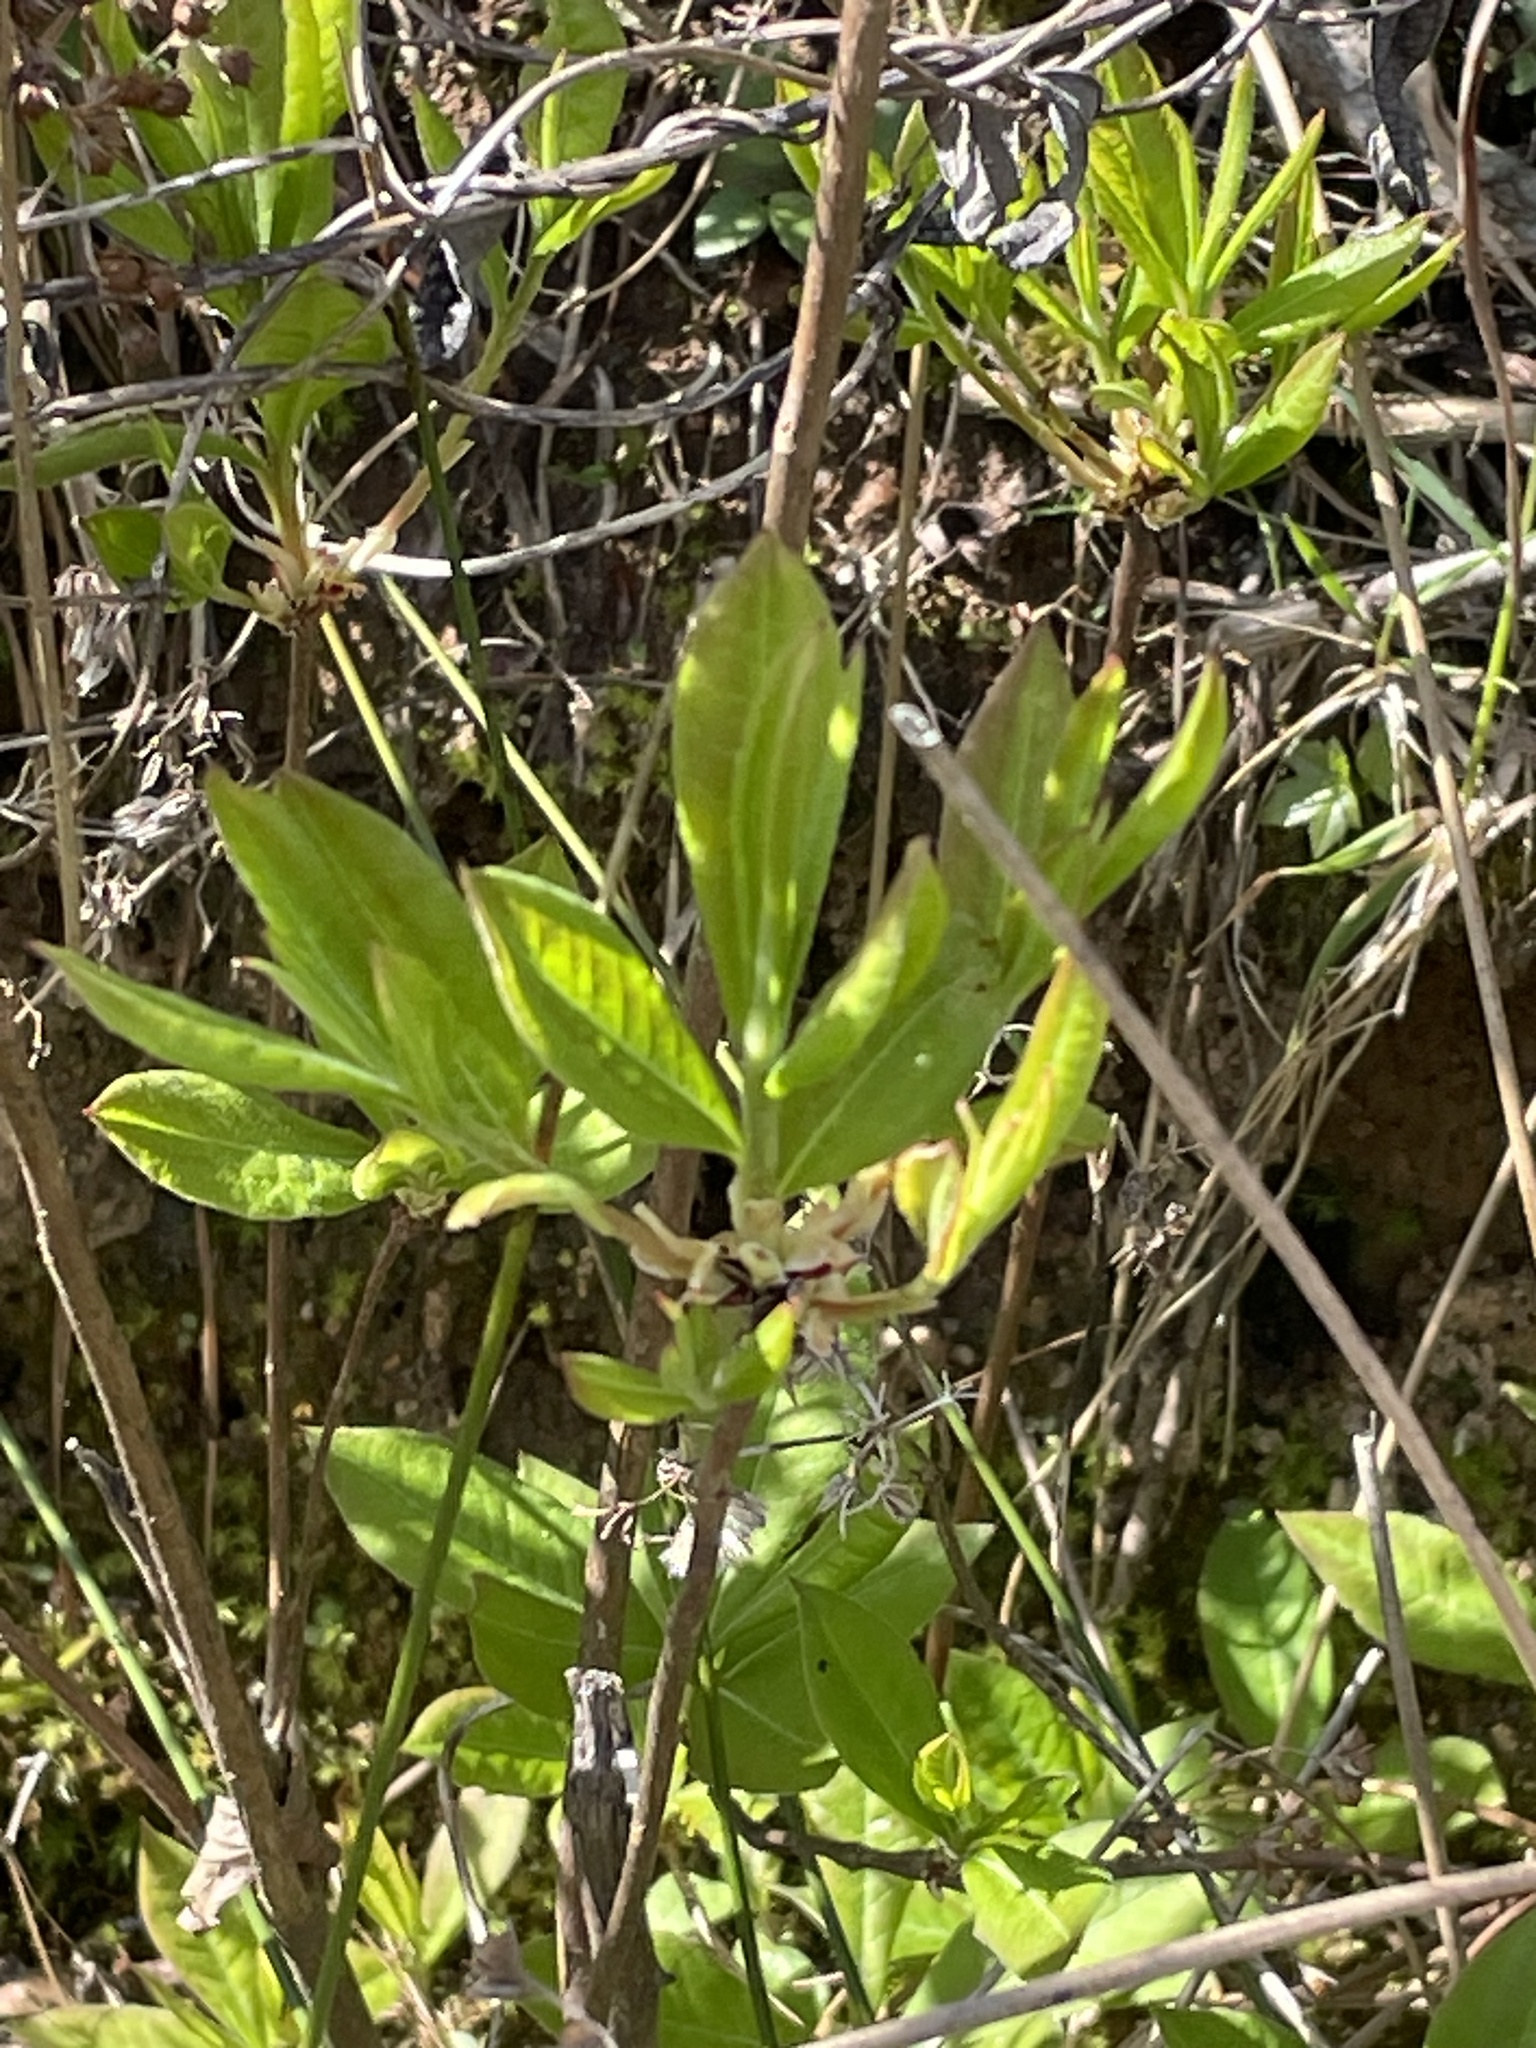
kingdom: Plantae
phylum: Tracheophyta
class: Magnoliopsida
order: Ericales
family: Ericaceae
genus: Rhododendron
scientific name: Rhododendron periclymenoides
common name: Election-pink
